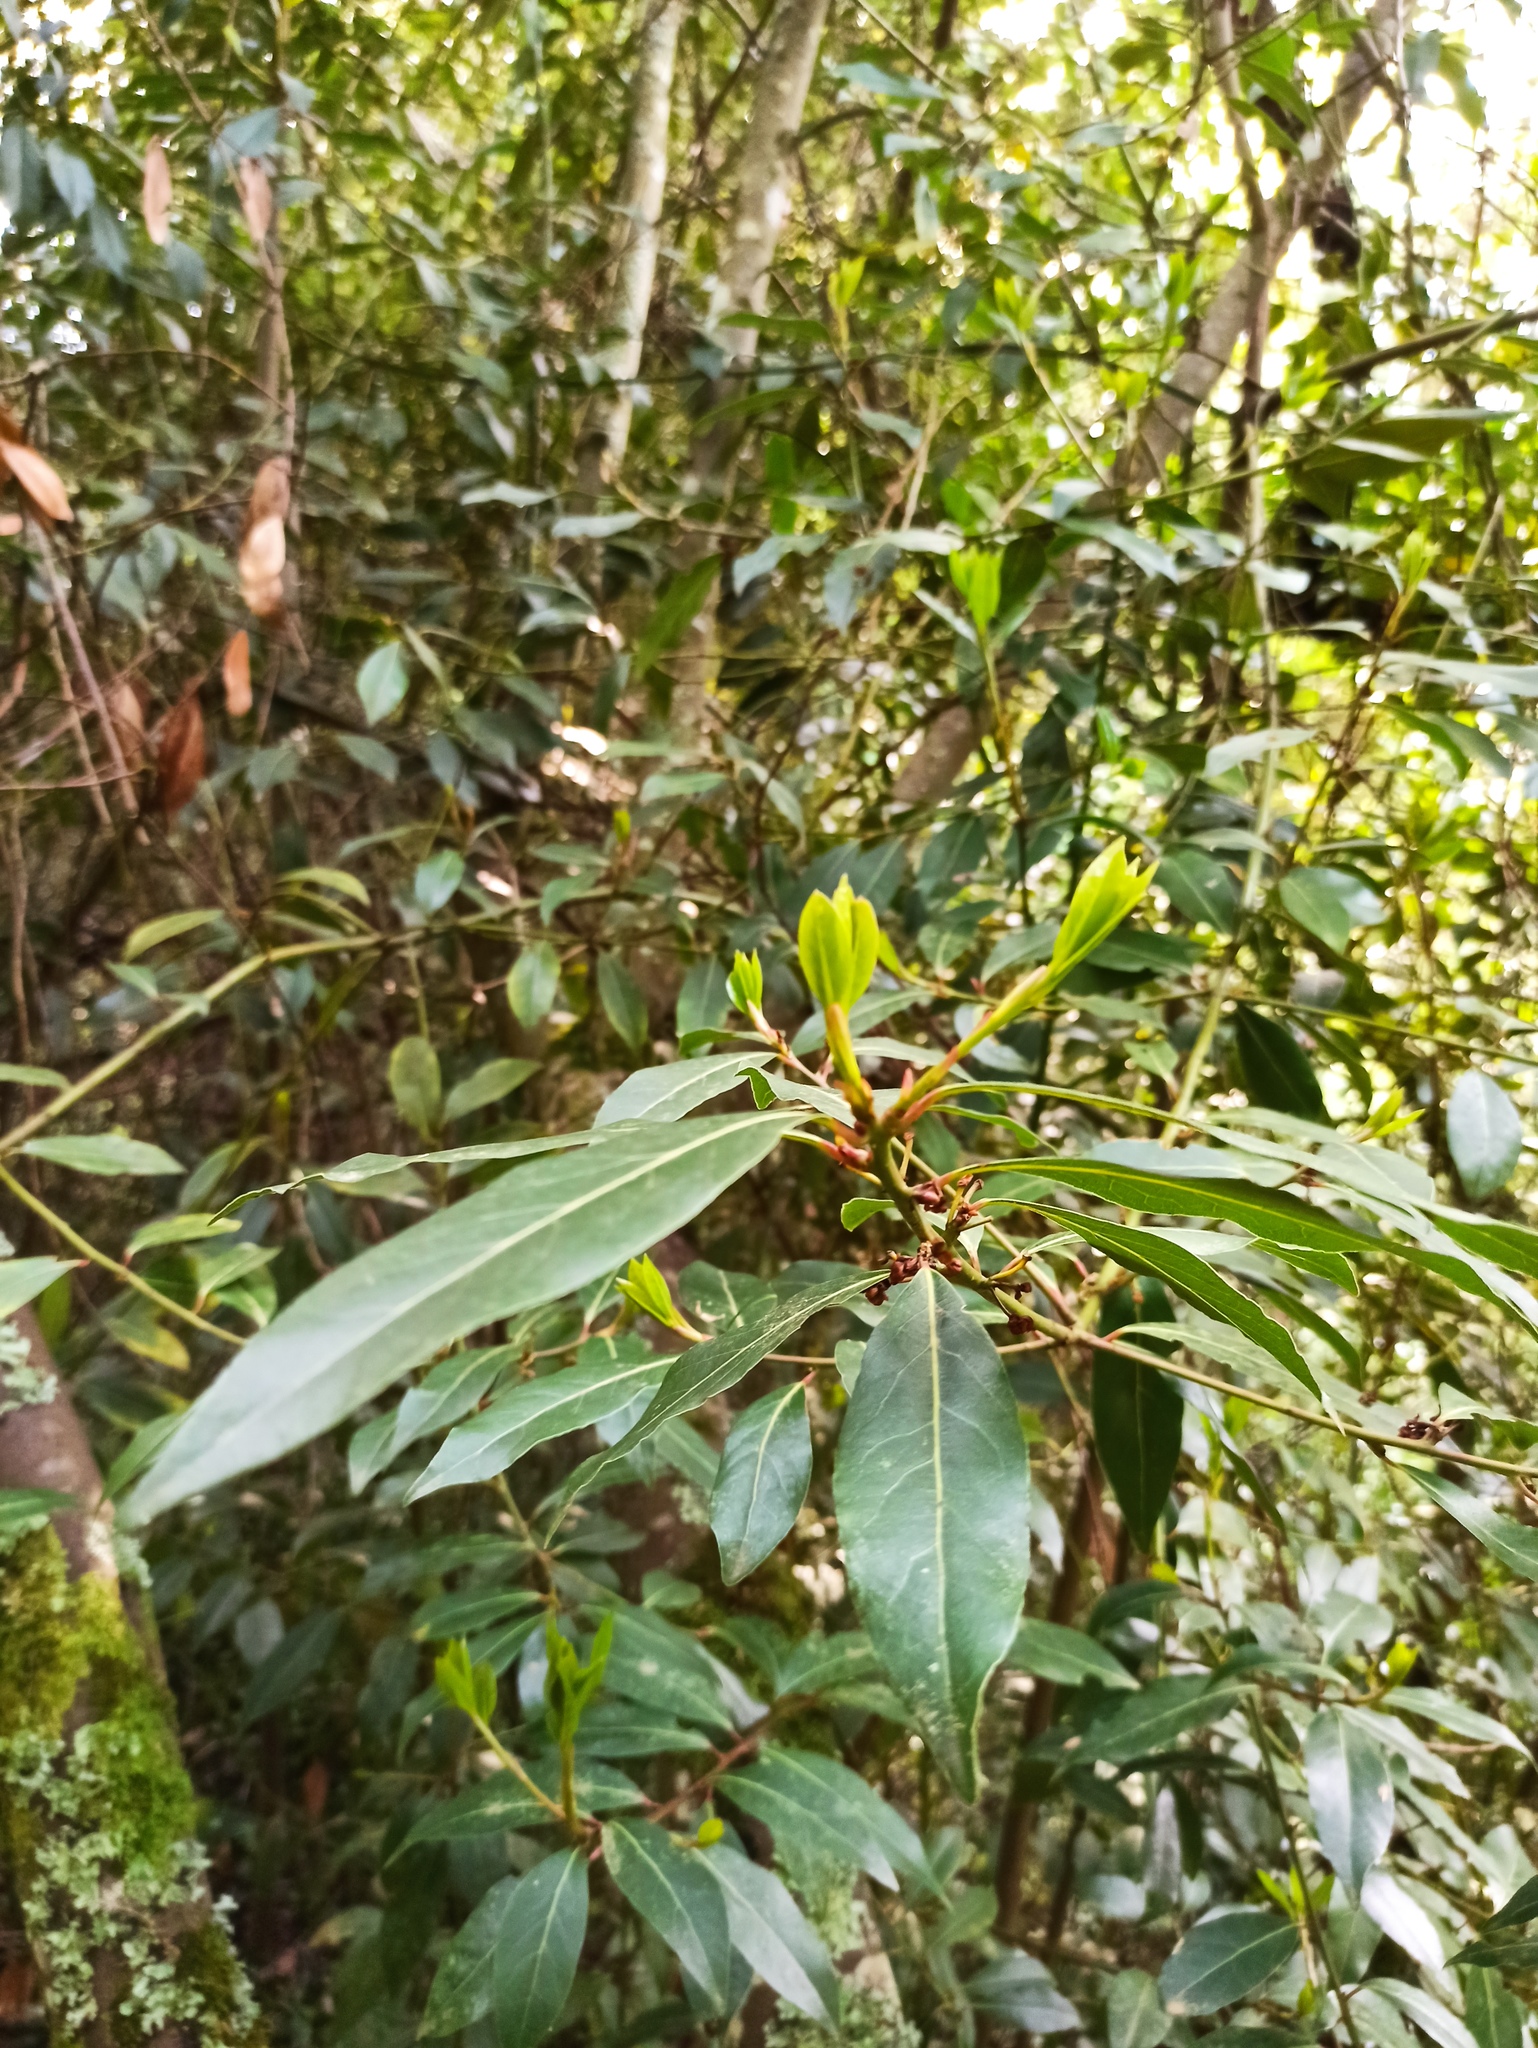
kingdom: Plantae
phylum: Tracheophyta
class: Magnoliopsida
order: Laurales
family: Lauraceae
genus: Laurus
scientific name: Laurus nobilis
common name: Bay
